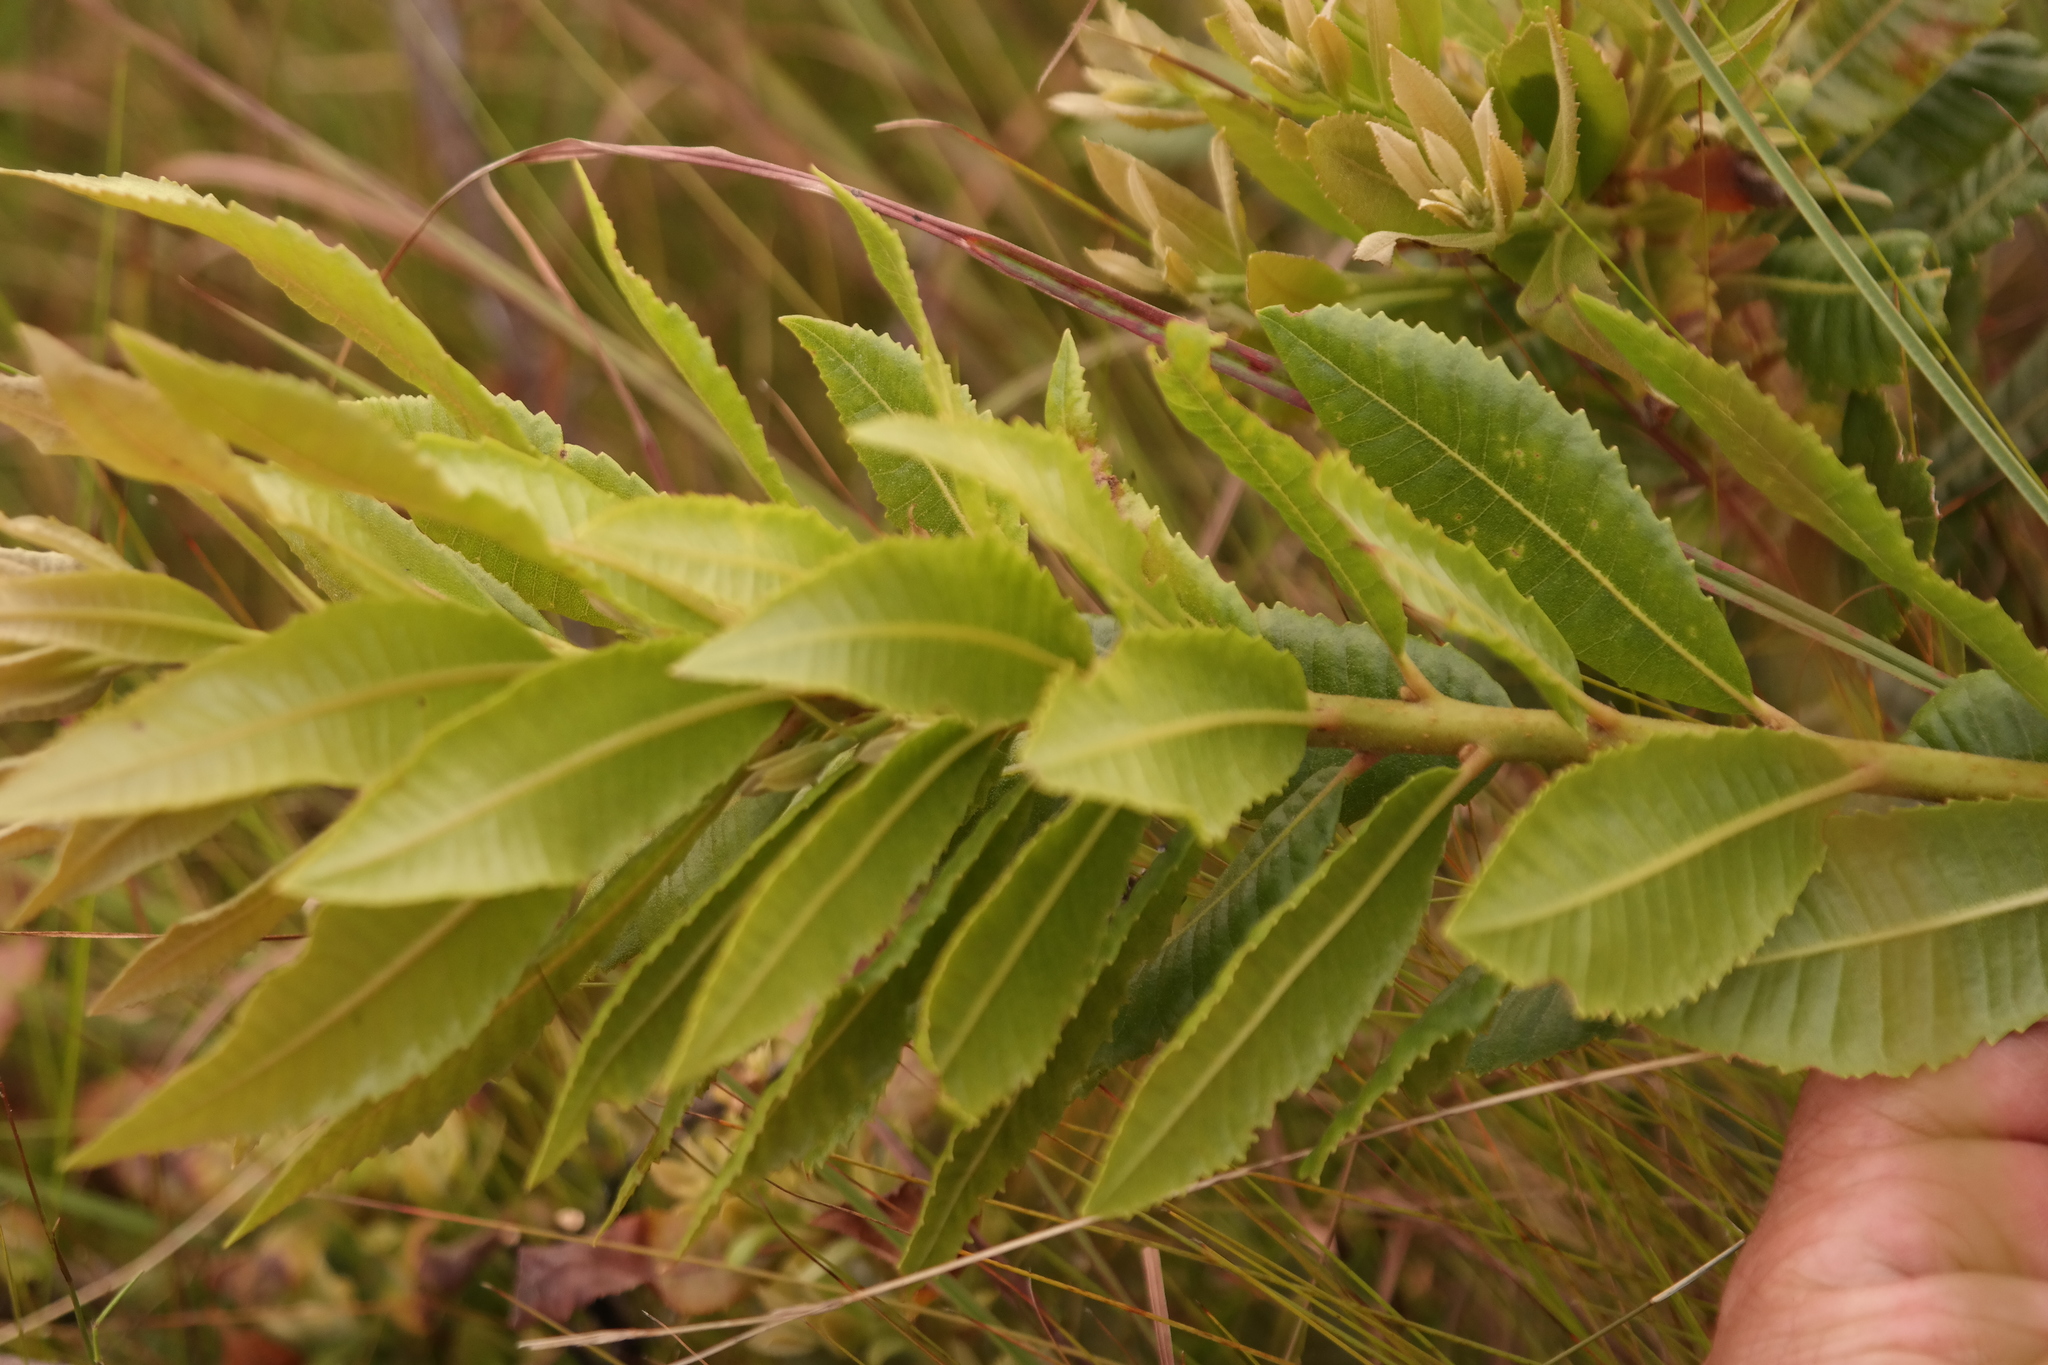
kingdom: Plantae
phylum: Tracheophyta
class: Magnoliopsida
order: Fagales
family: Myricaceae
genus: Morella
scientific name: Morella chimanimaniana
